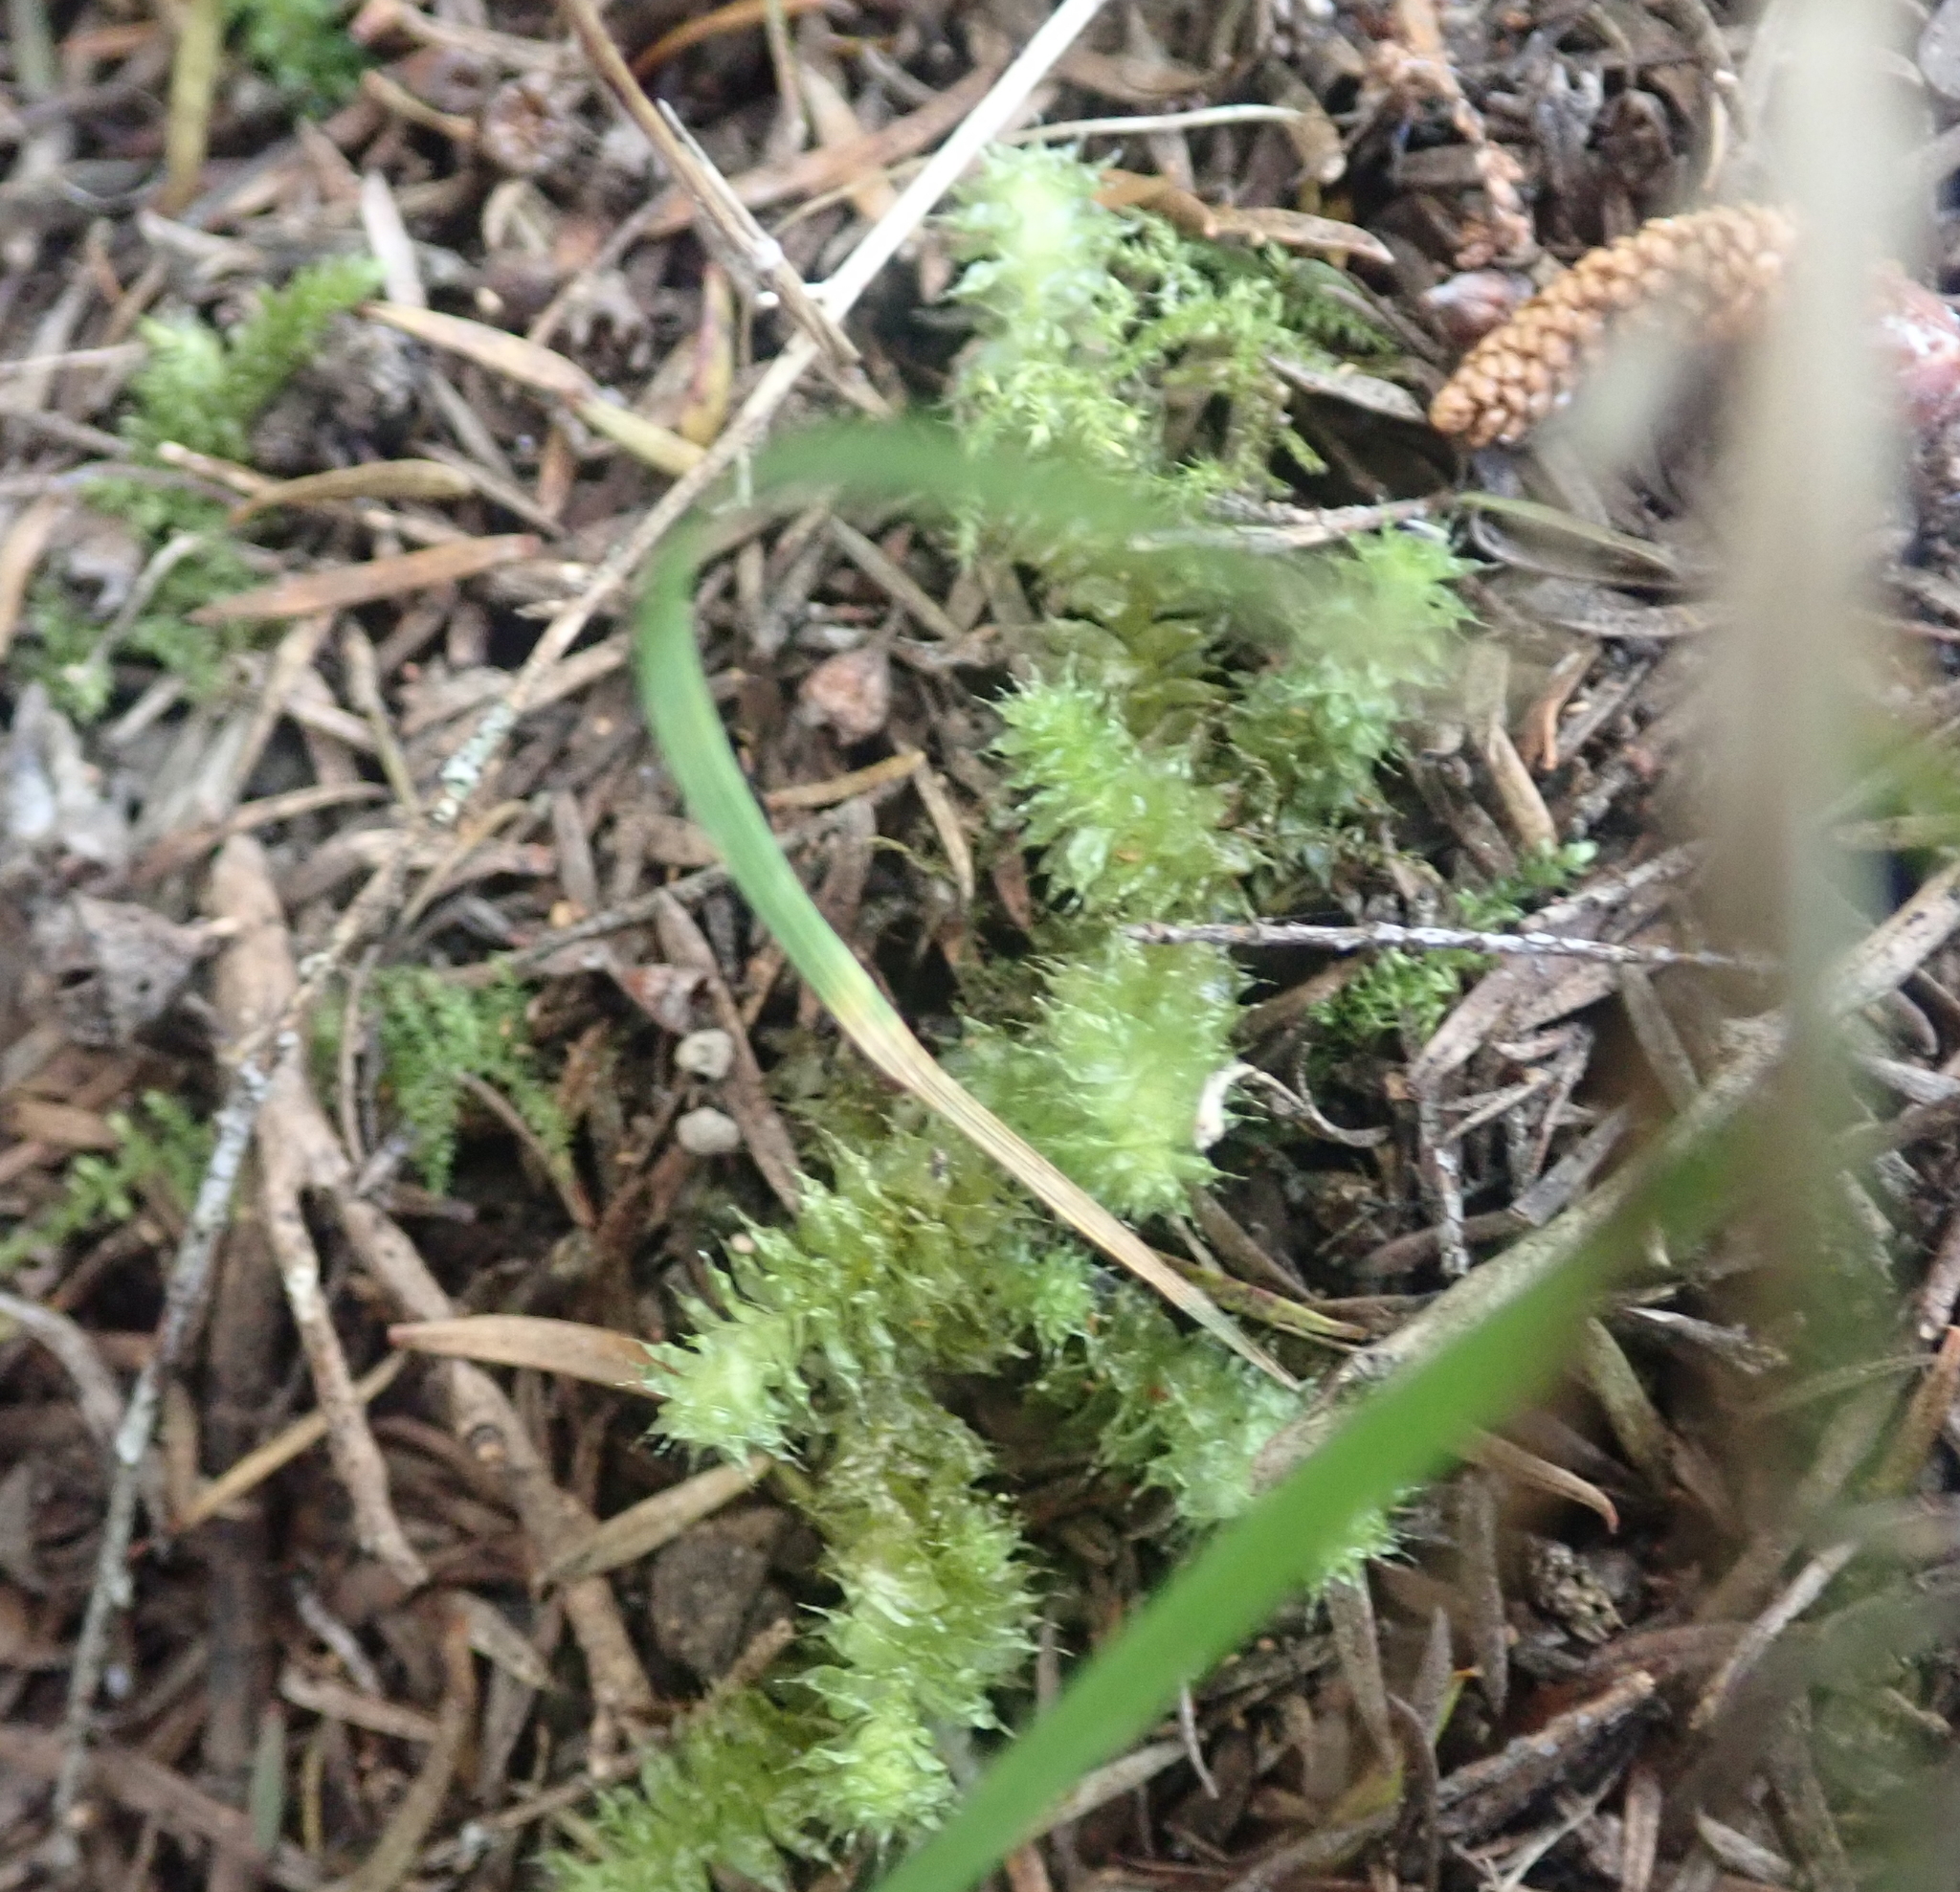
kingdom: Plantae
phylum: Bryophyta
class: Bryopsida
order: Ptychomniales
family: Ptychomniaceae
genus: Ptychomnion
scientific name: Ptychomnion aciculare
